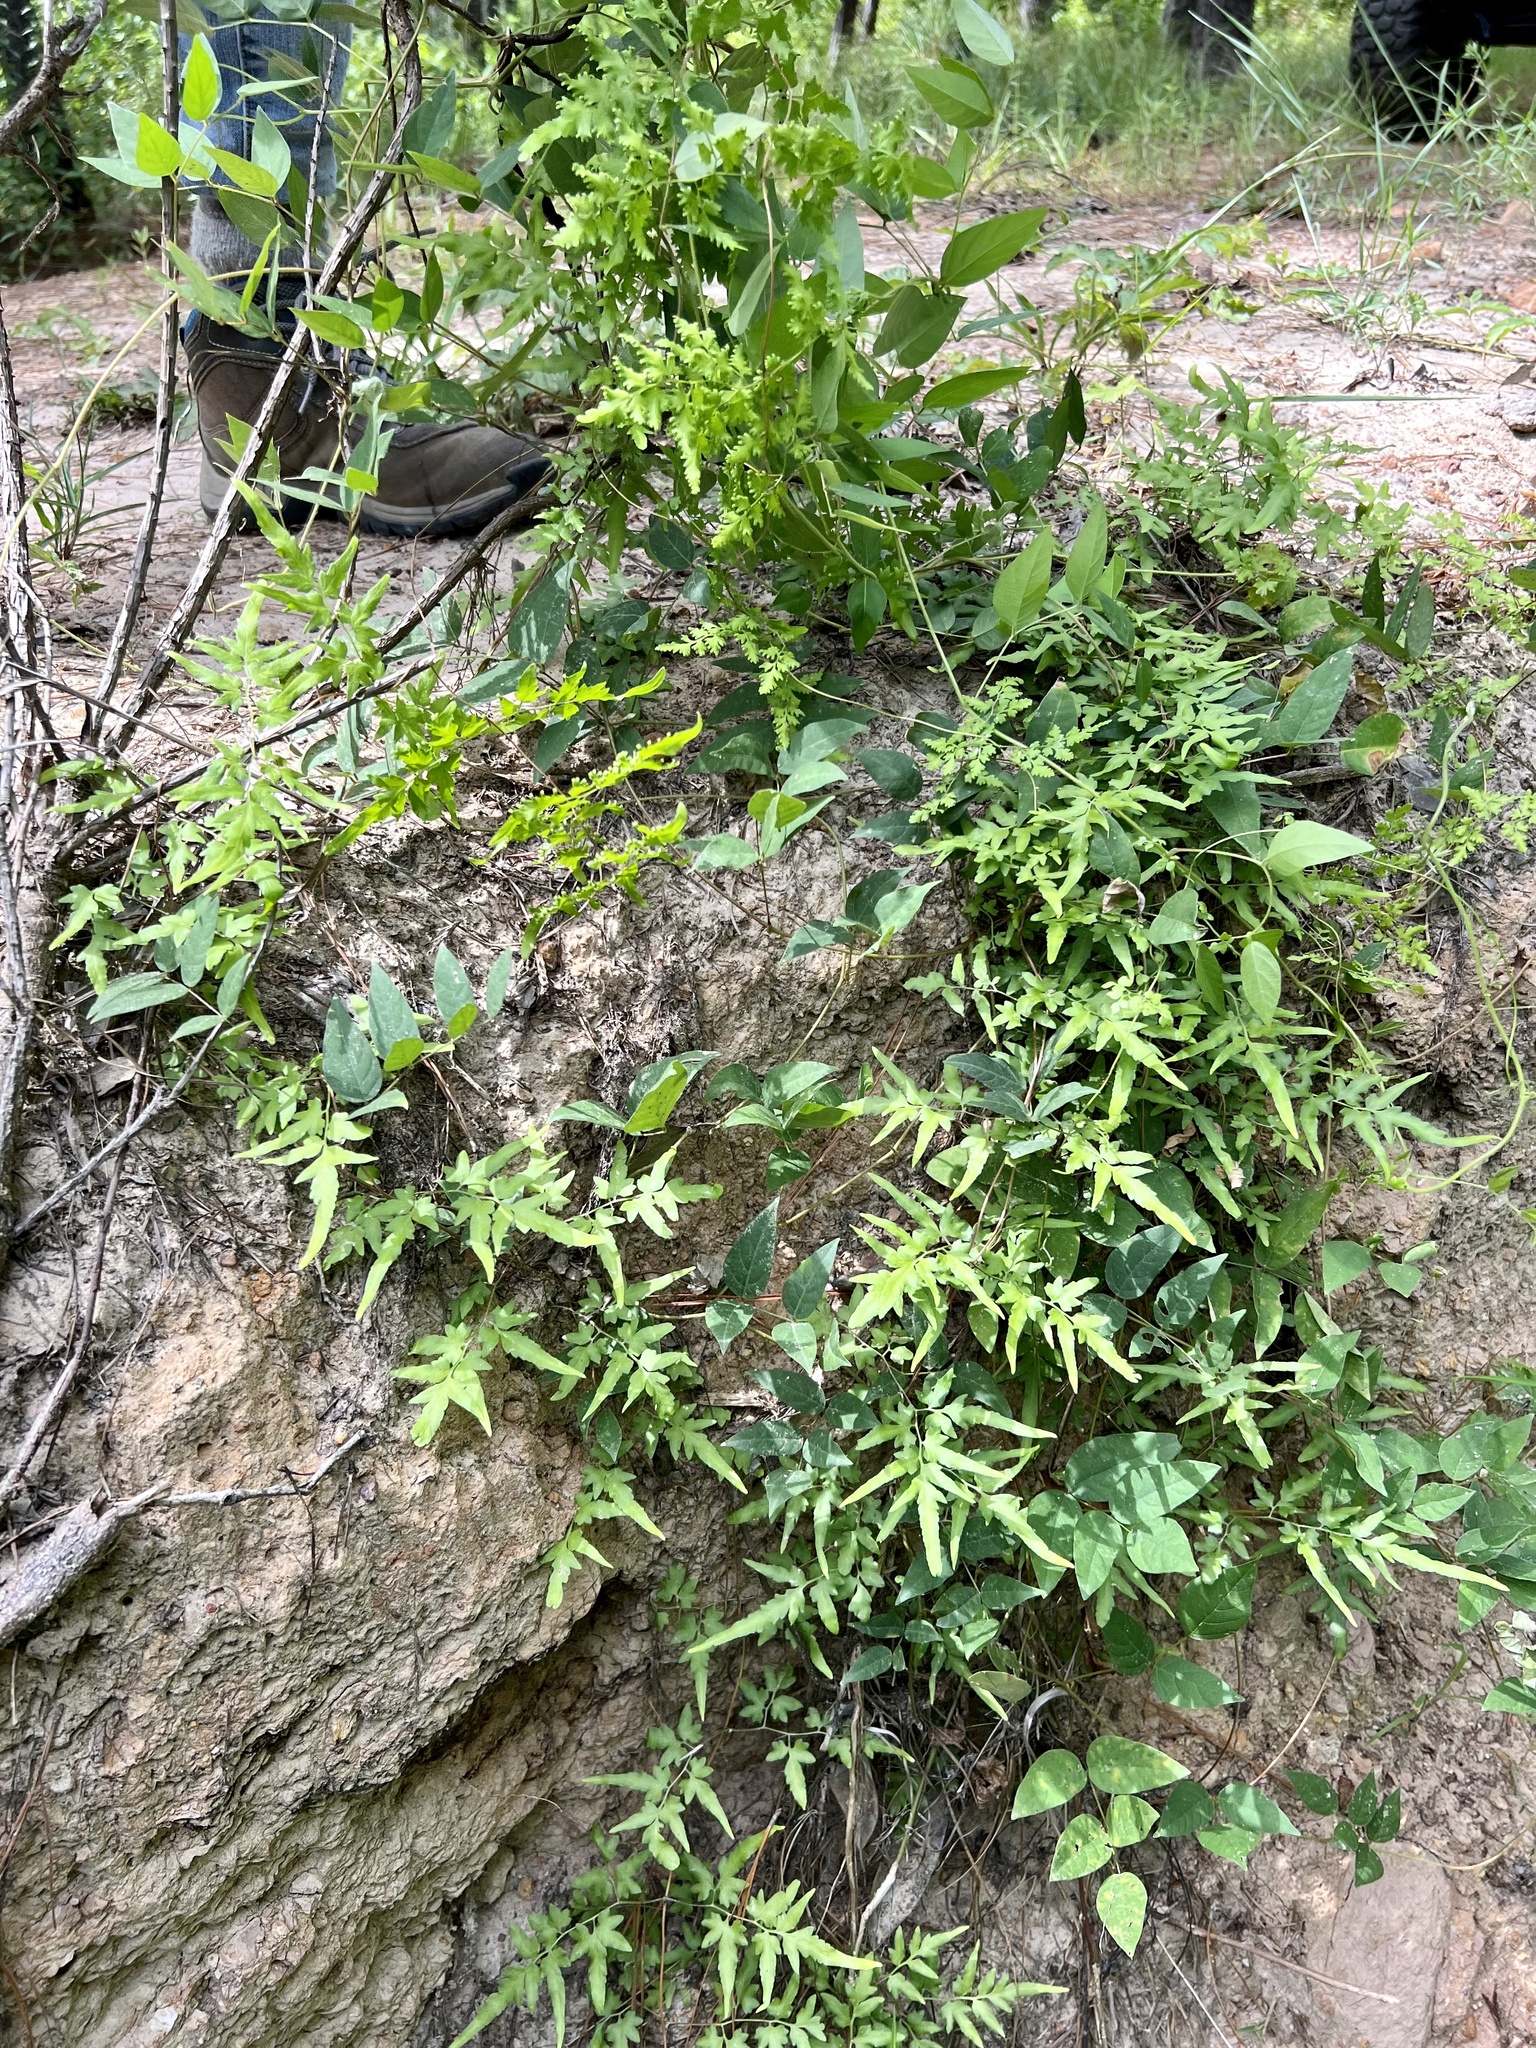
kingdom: Plantae
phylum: Tracheophyta
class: Polypodiopsida
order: Schizaeales
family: Lygodiaceae
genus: Lygodium
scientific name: Lygodium japonicum
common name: Japanese climbing fern
